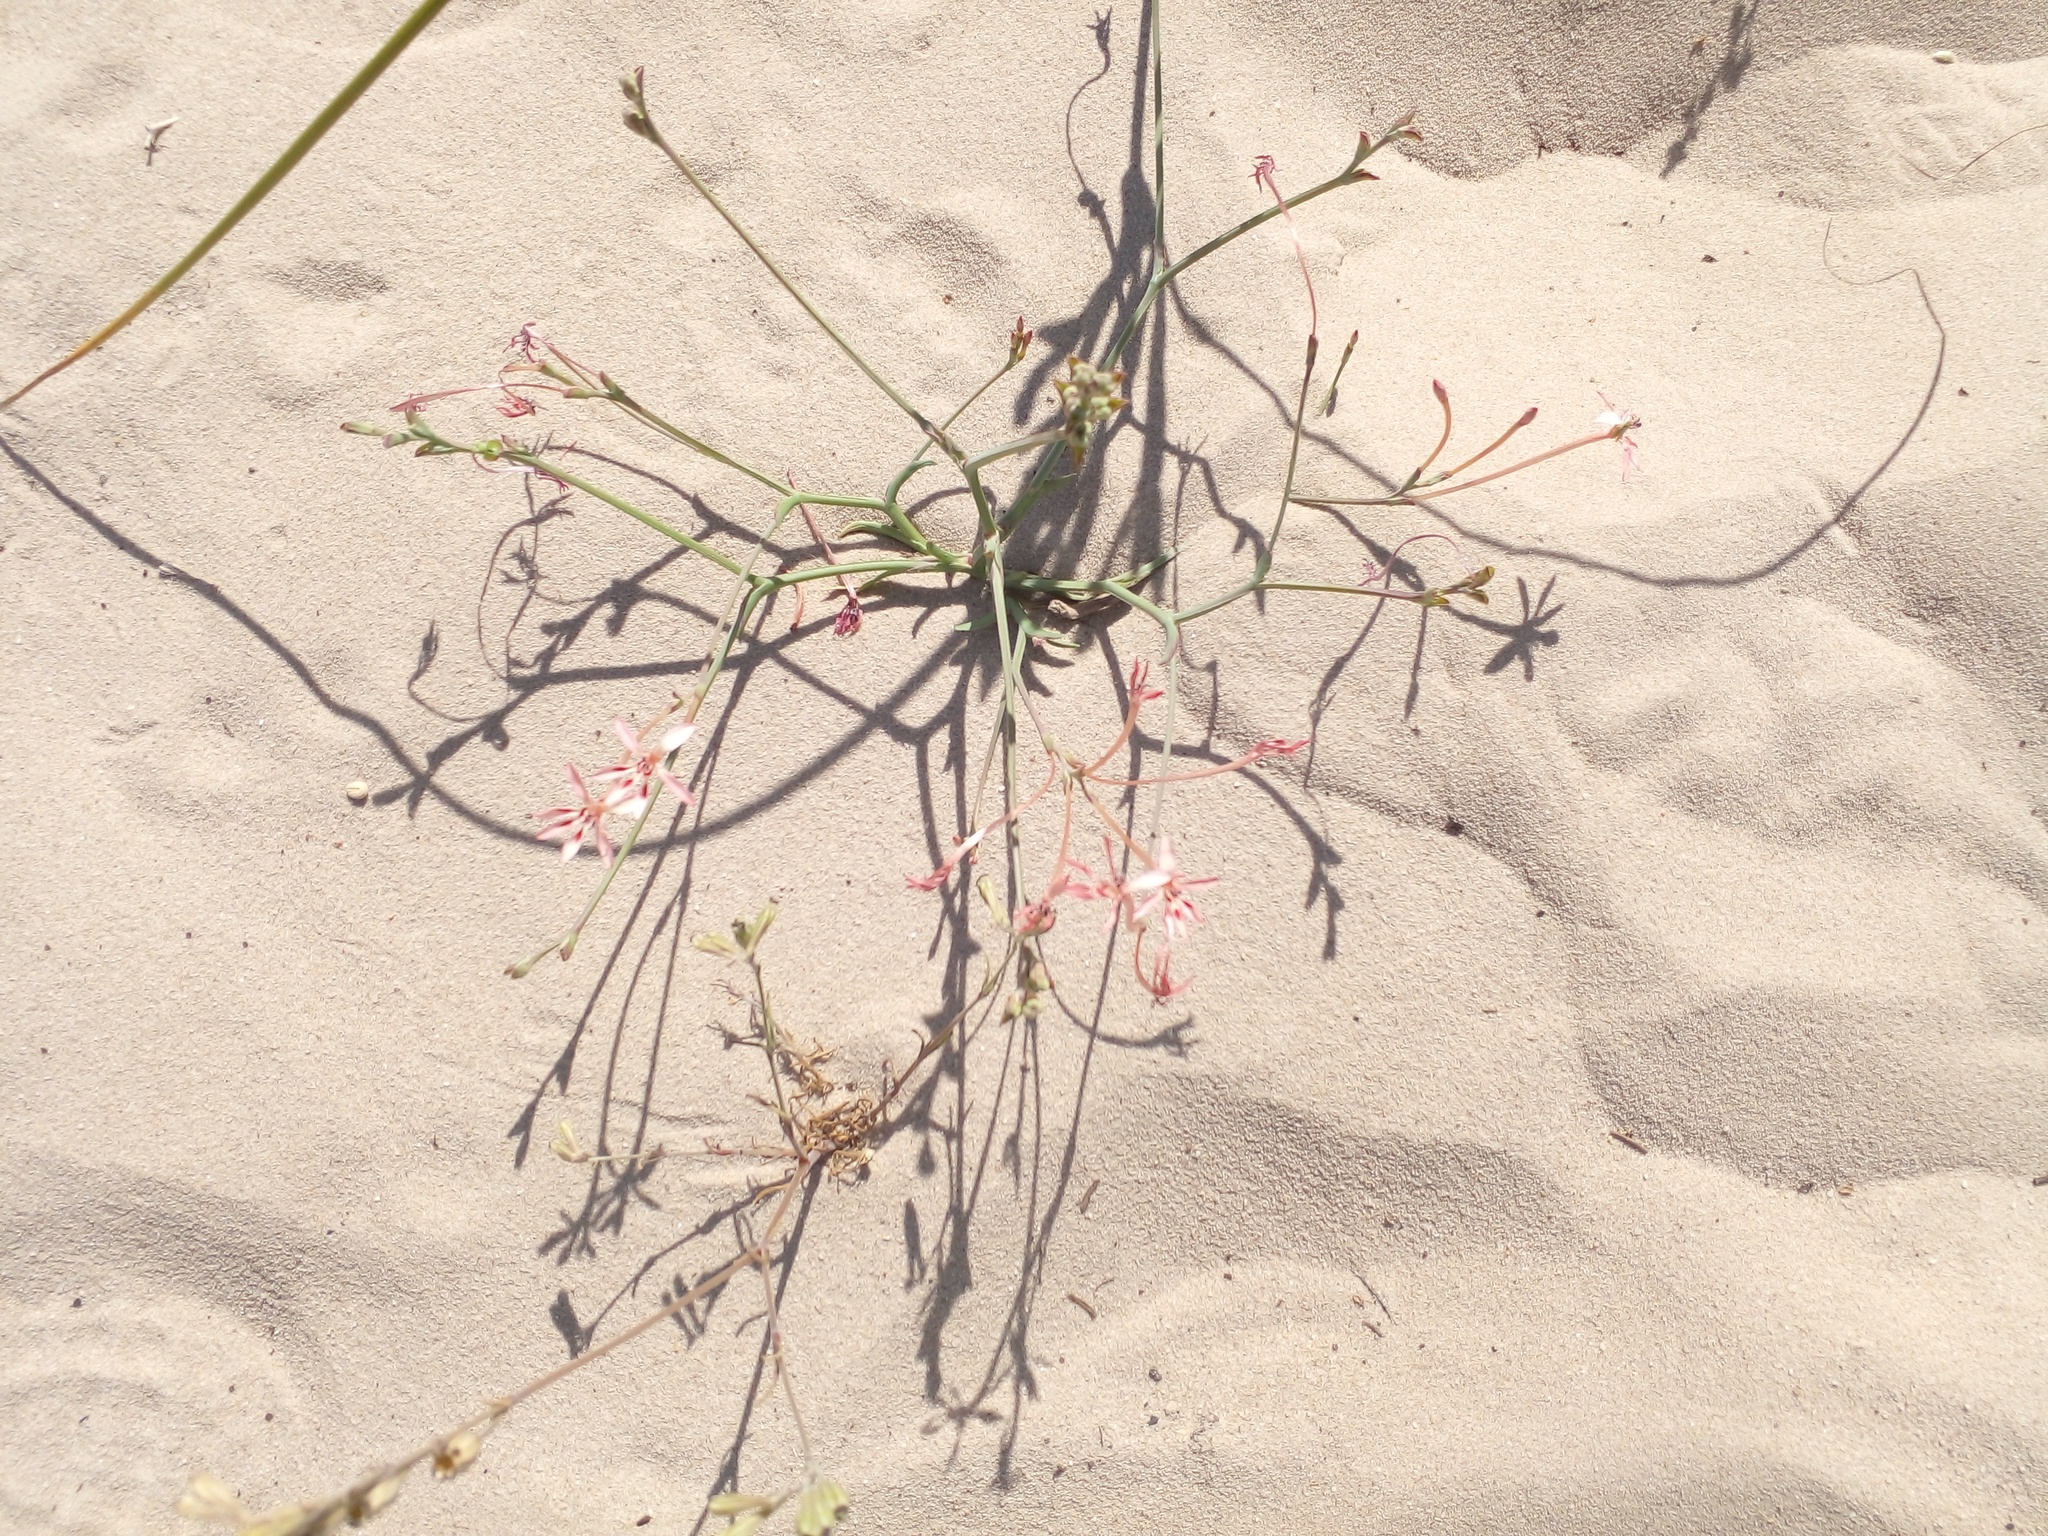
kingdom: Plantae
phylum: Tracheophyta
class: Liliopsida
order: Asparagales
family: Iridaceae
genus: Lapeirousia
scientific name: Lapeirousia anceps
